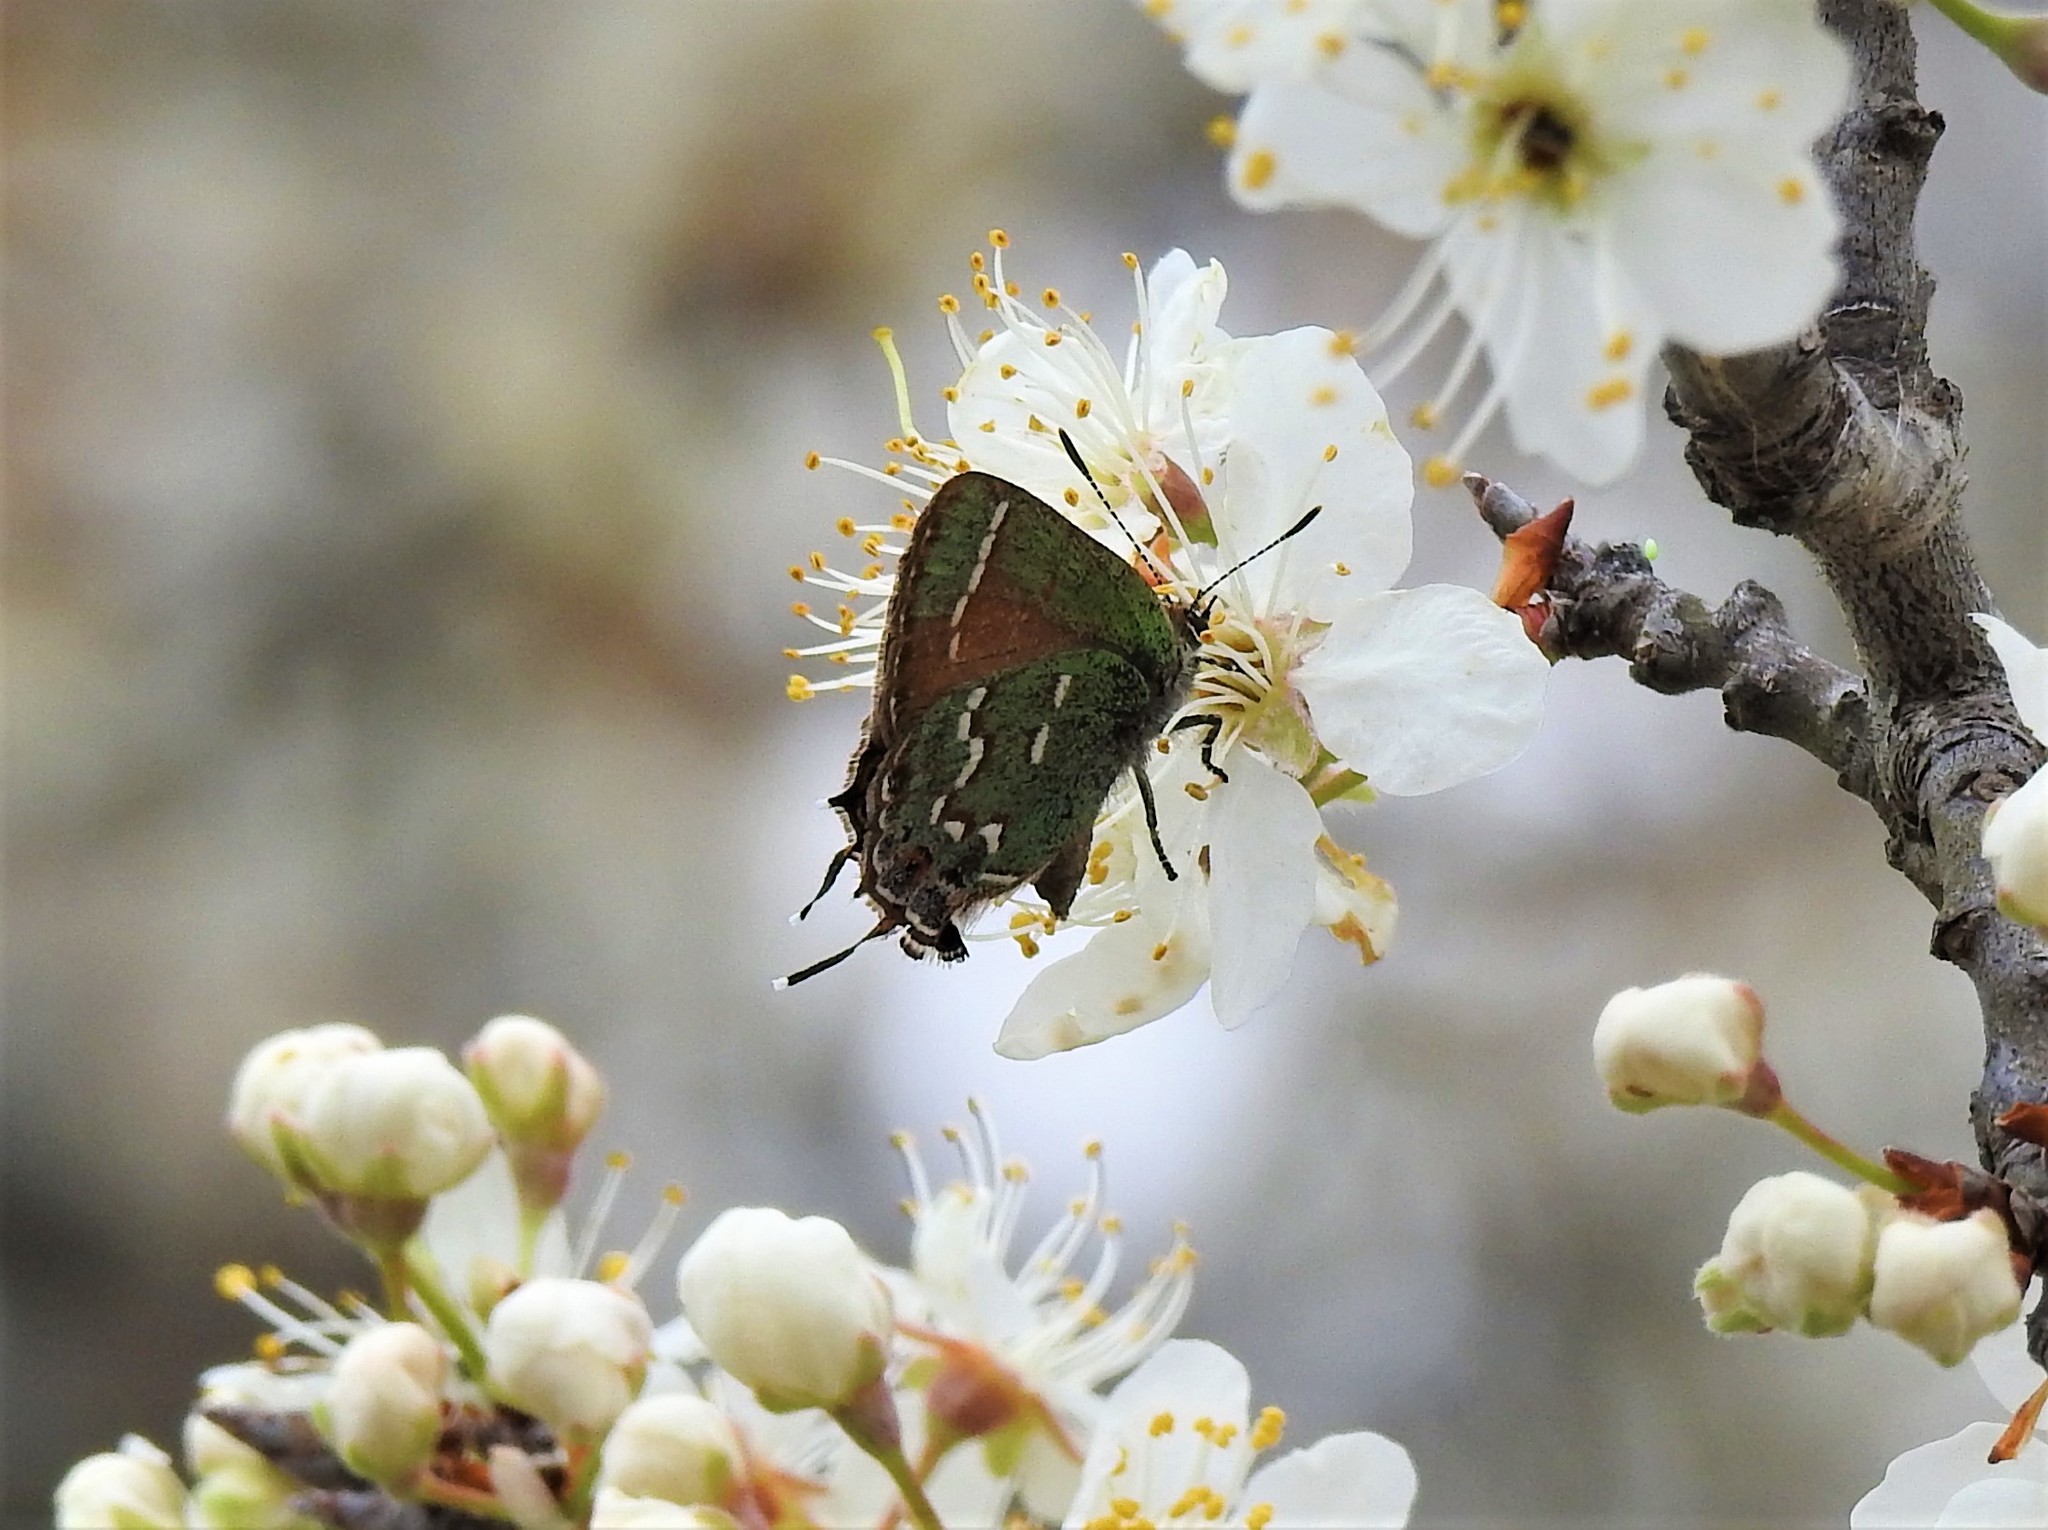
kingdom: Animalia
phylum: Arthropoda
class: Insecta
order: Lepidoptera
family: Lycaenidae
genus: Mitoura
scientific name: Mitoura gryneus
